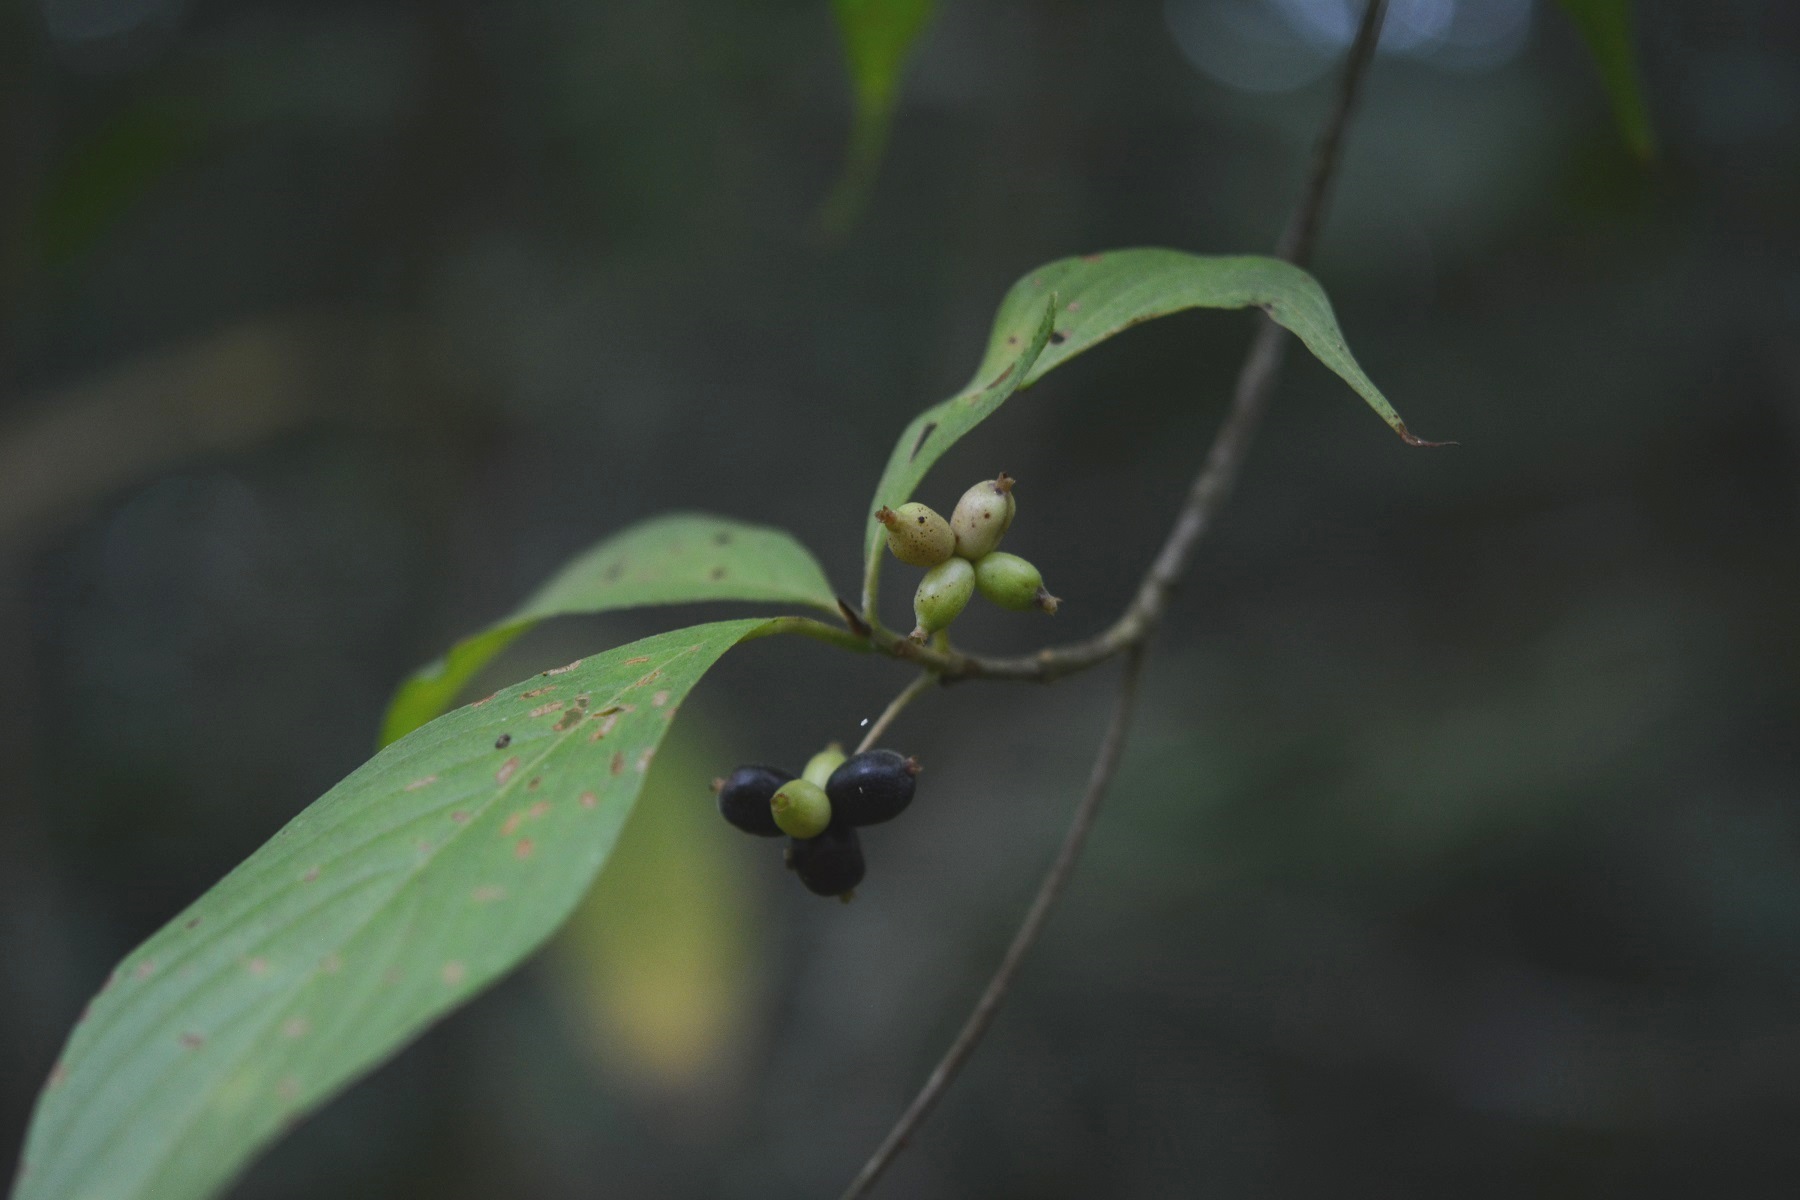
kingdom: Plantae
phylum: Tracheophyta
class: Magnoliopsida
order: Gentianales
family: Rubiaceae
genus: Arachnothryx
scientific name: Arachnothryx chiapensis
